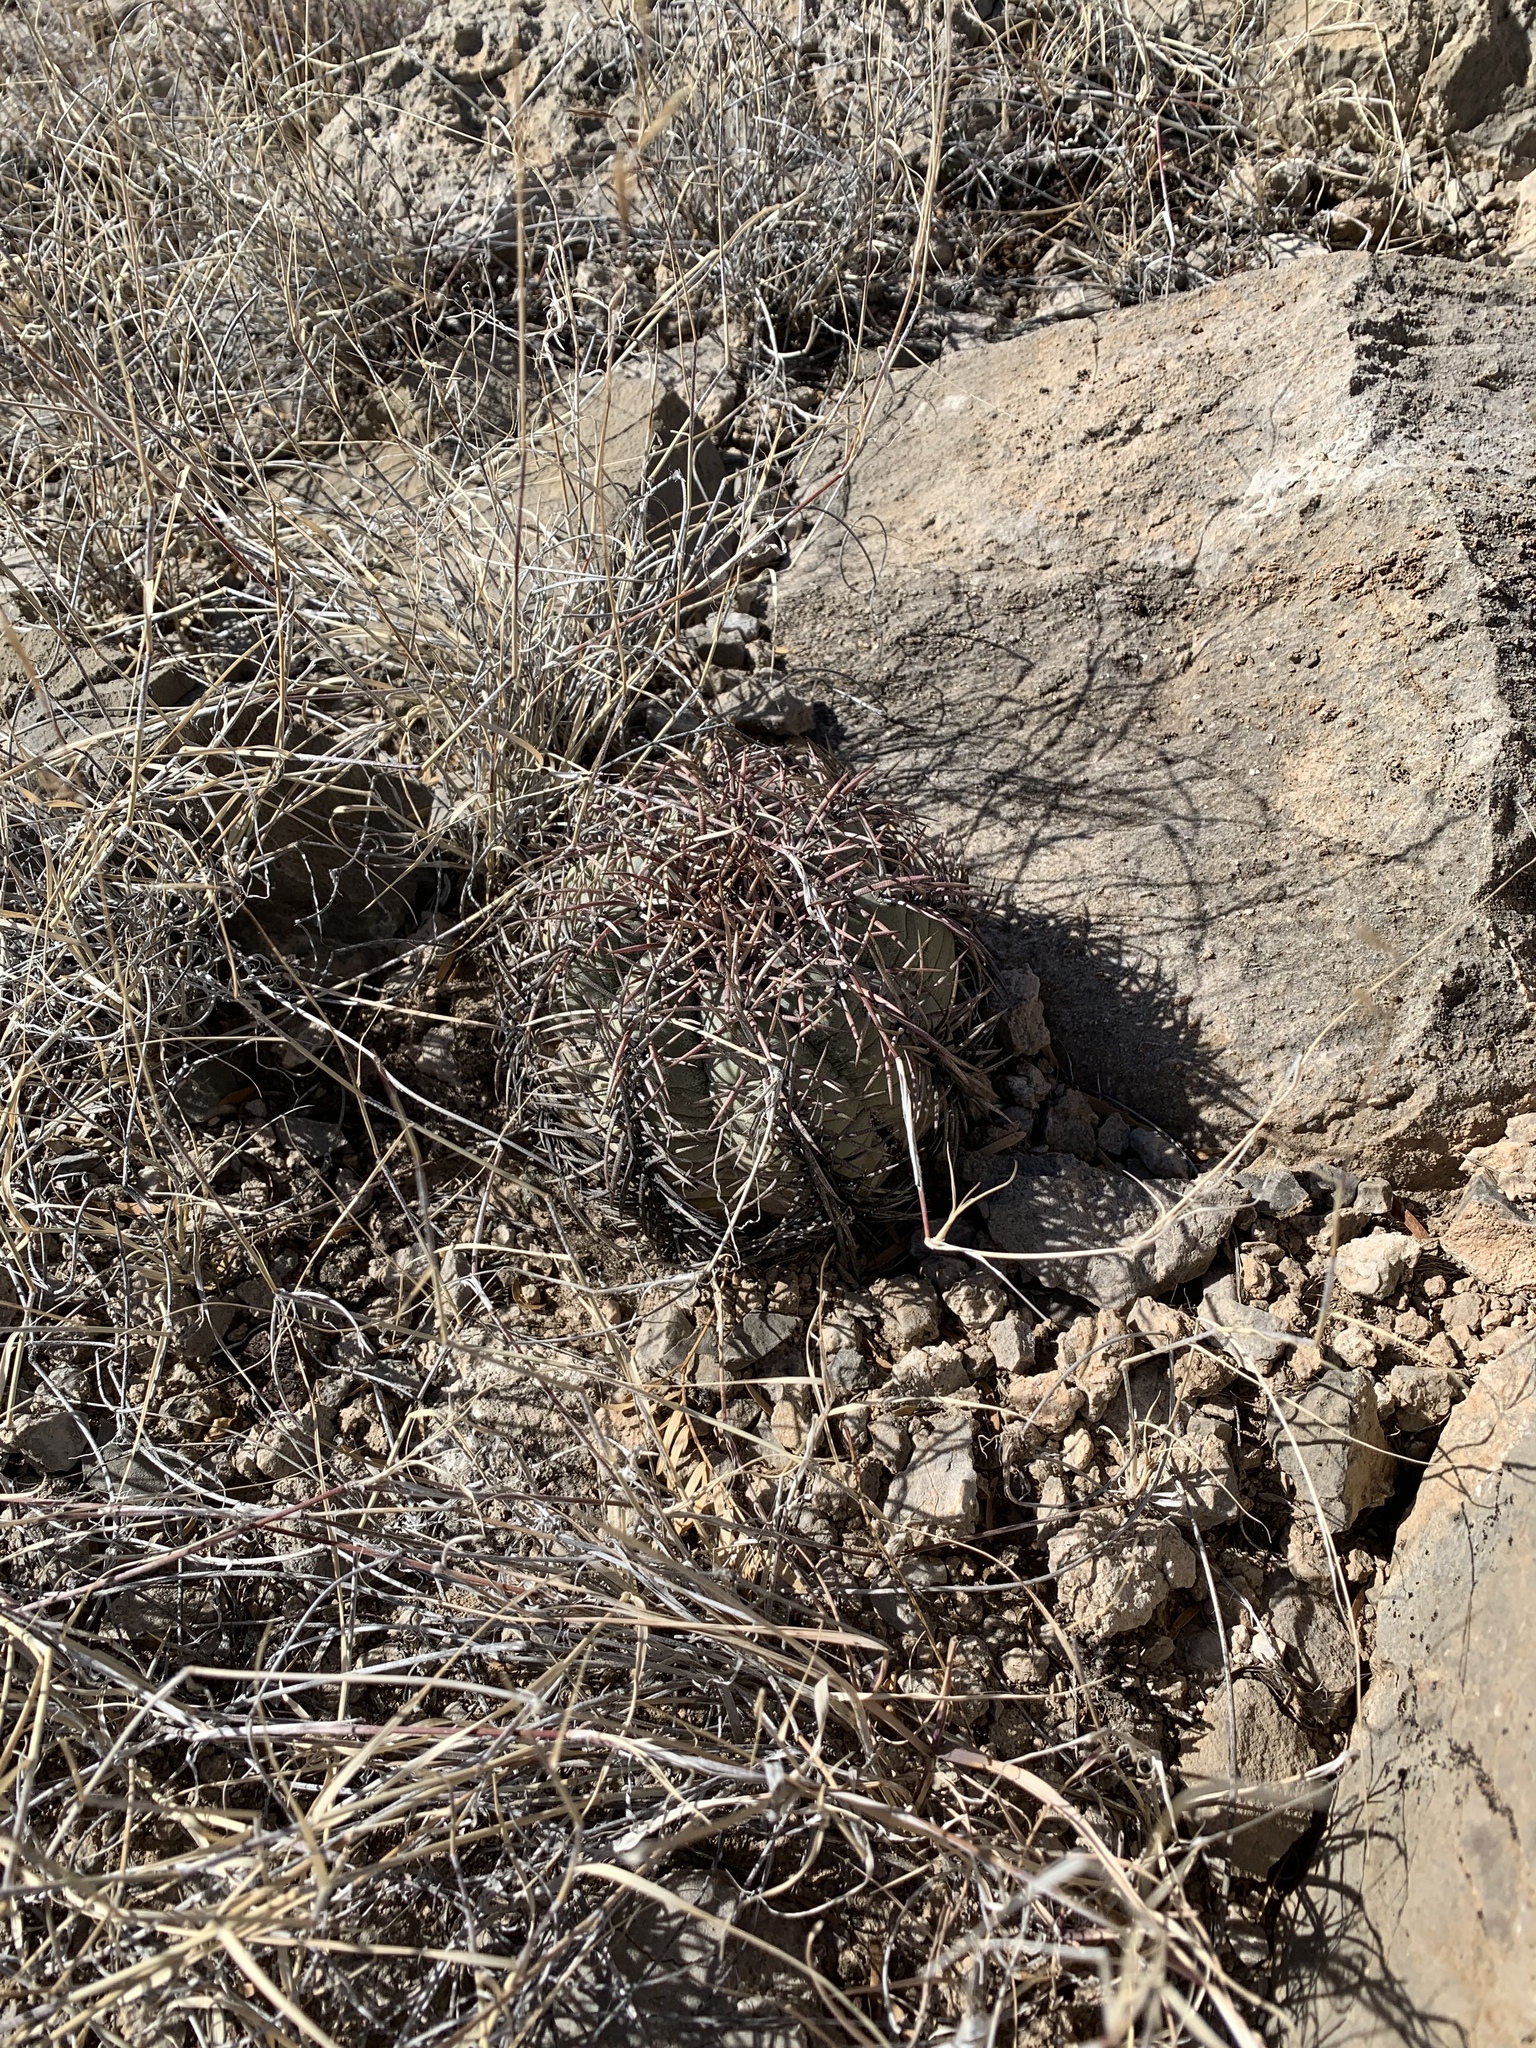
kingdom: Plantae
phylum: Tracheophyta
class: Magnoliopsida
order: Caryophyllales
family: Cactaceae
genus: Echinocactus
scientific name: Echinocactus horizonthalonius
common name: Devilshead
